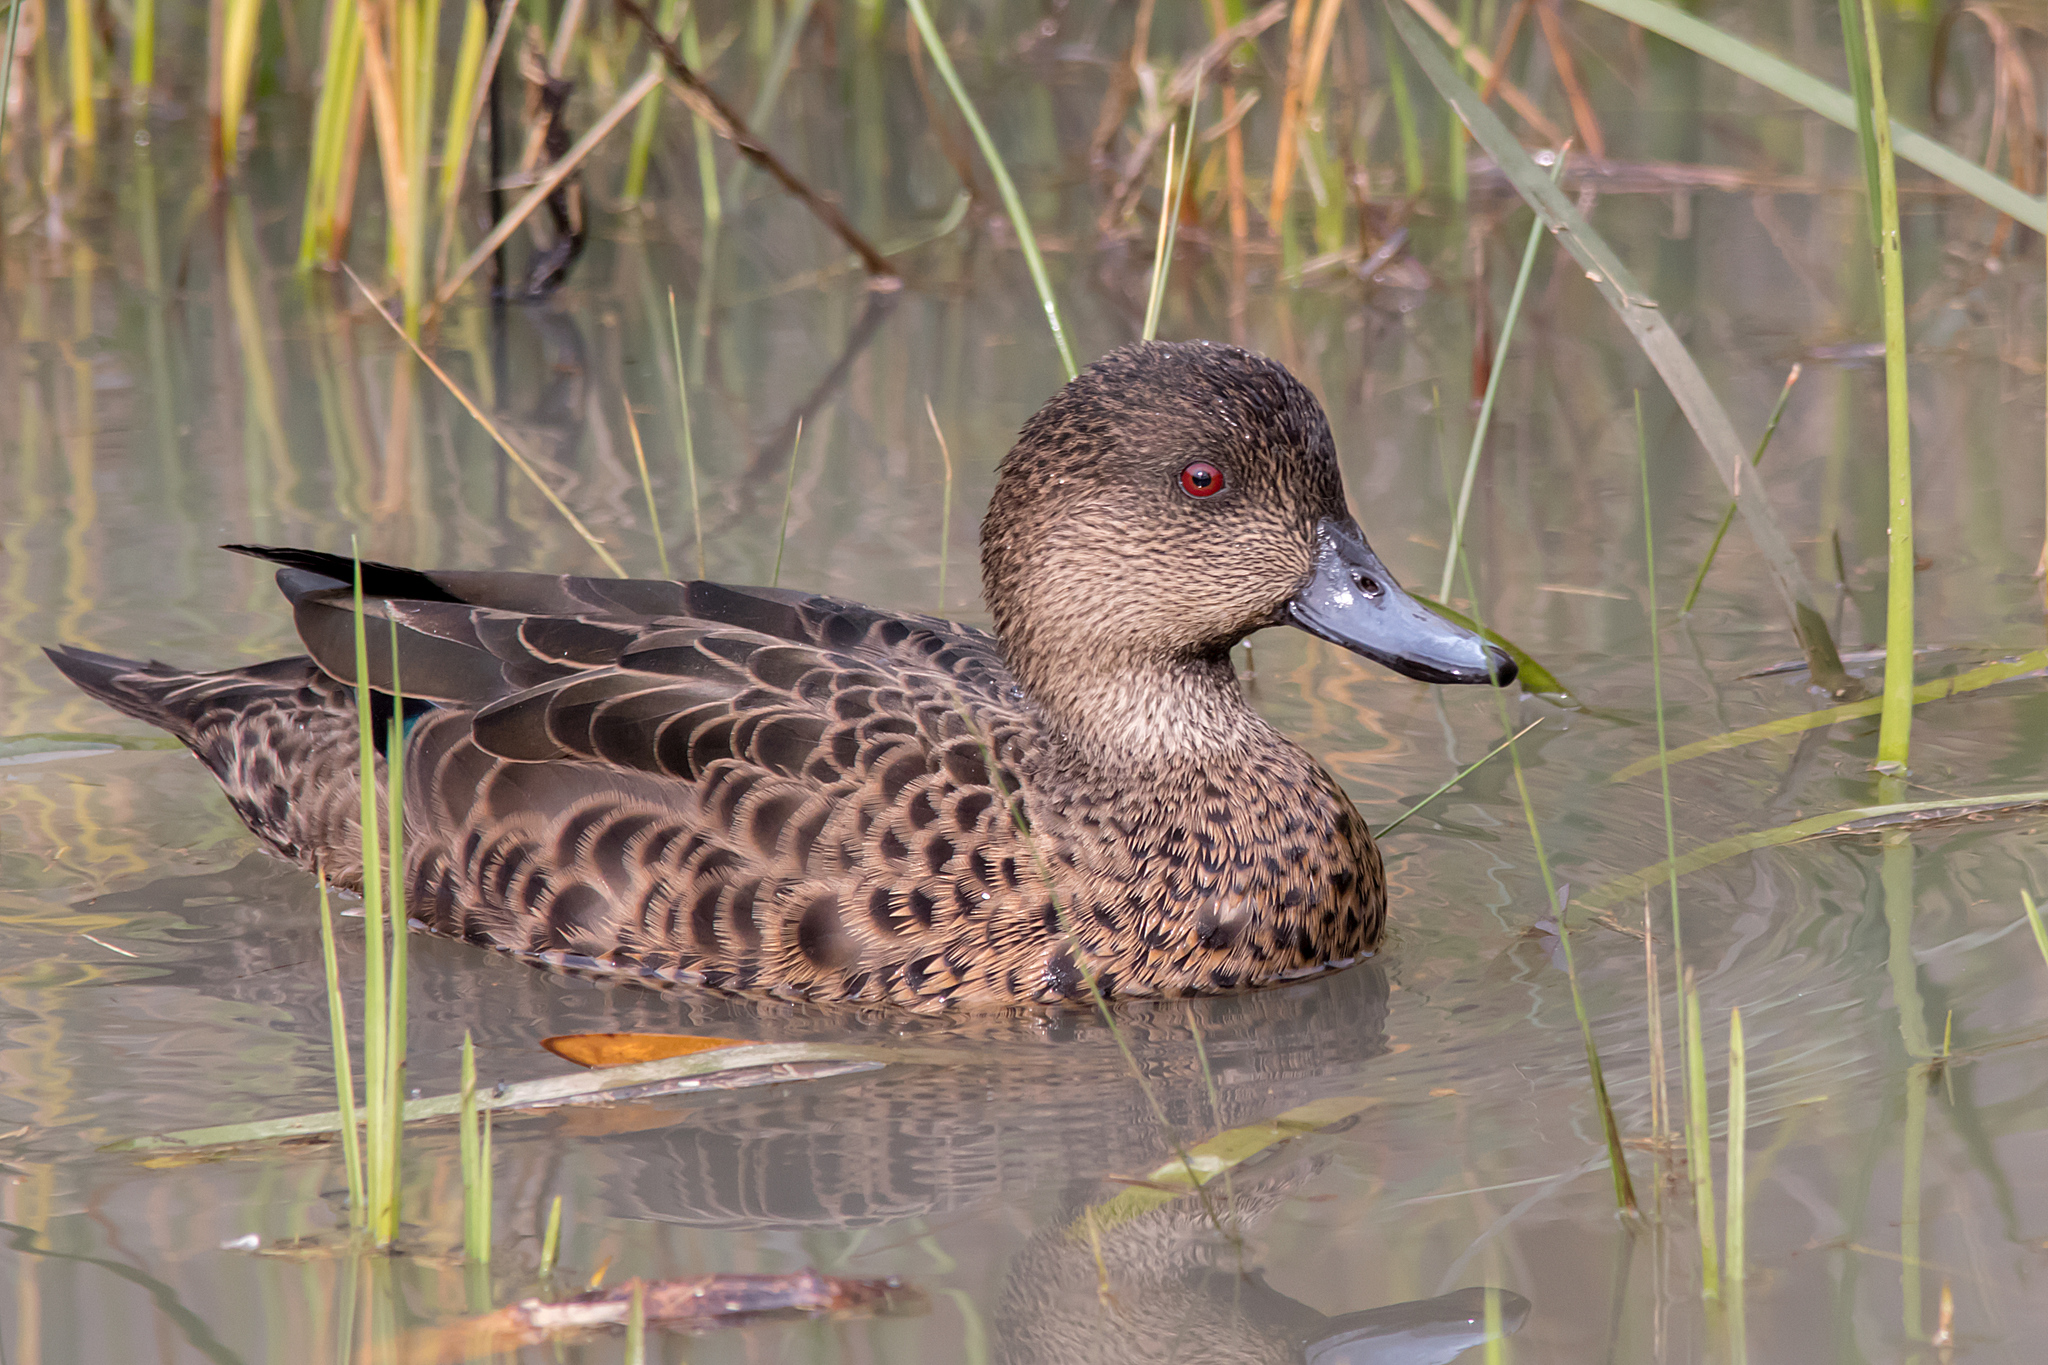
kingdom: Animalia
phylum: Chordata
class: Aves
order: Anseriformes
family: Anatidae
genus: Anas
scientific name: Anas castanea
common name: Chestnut teal
